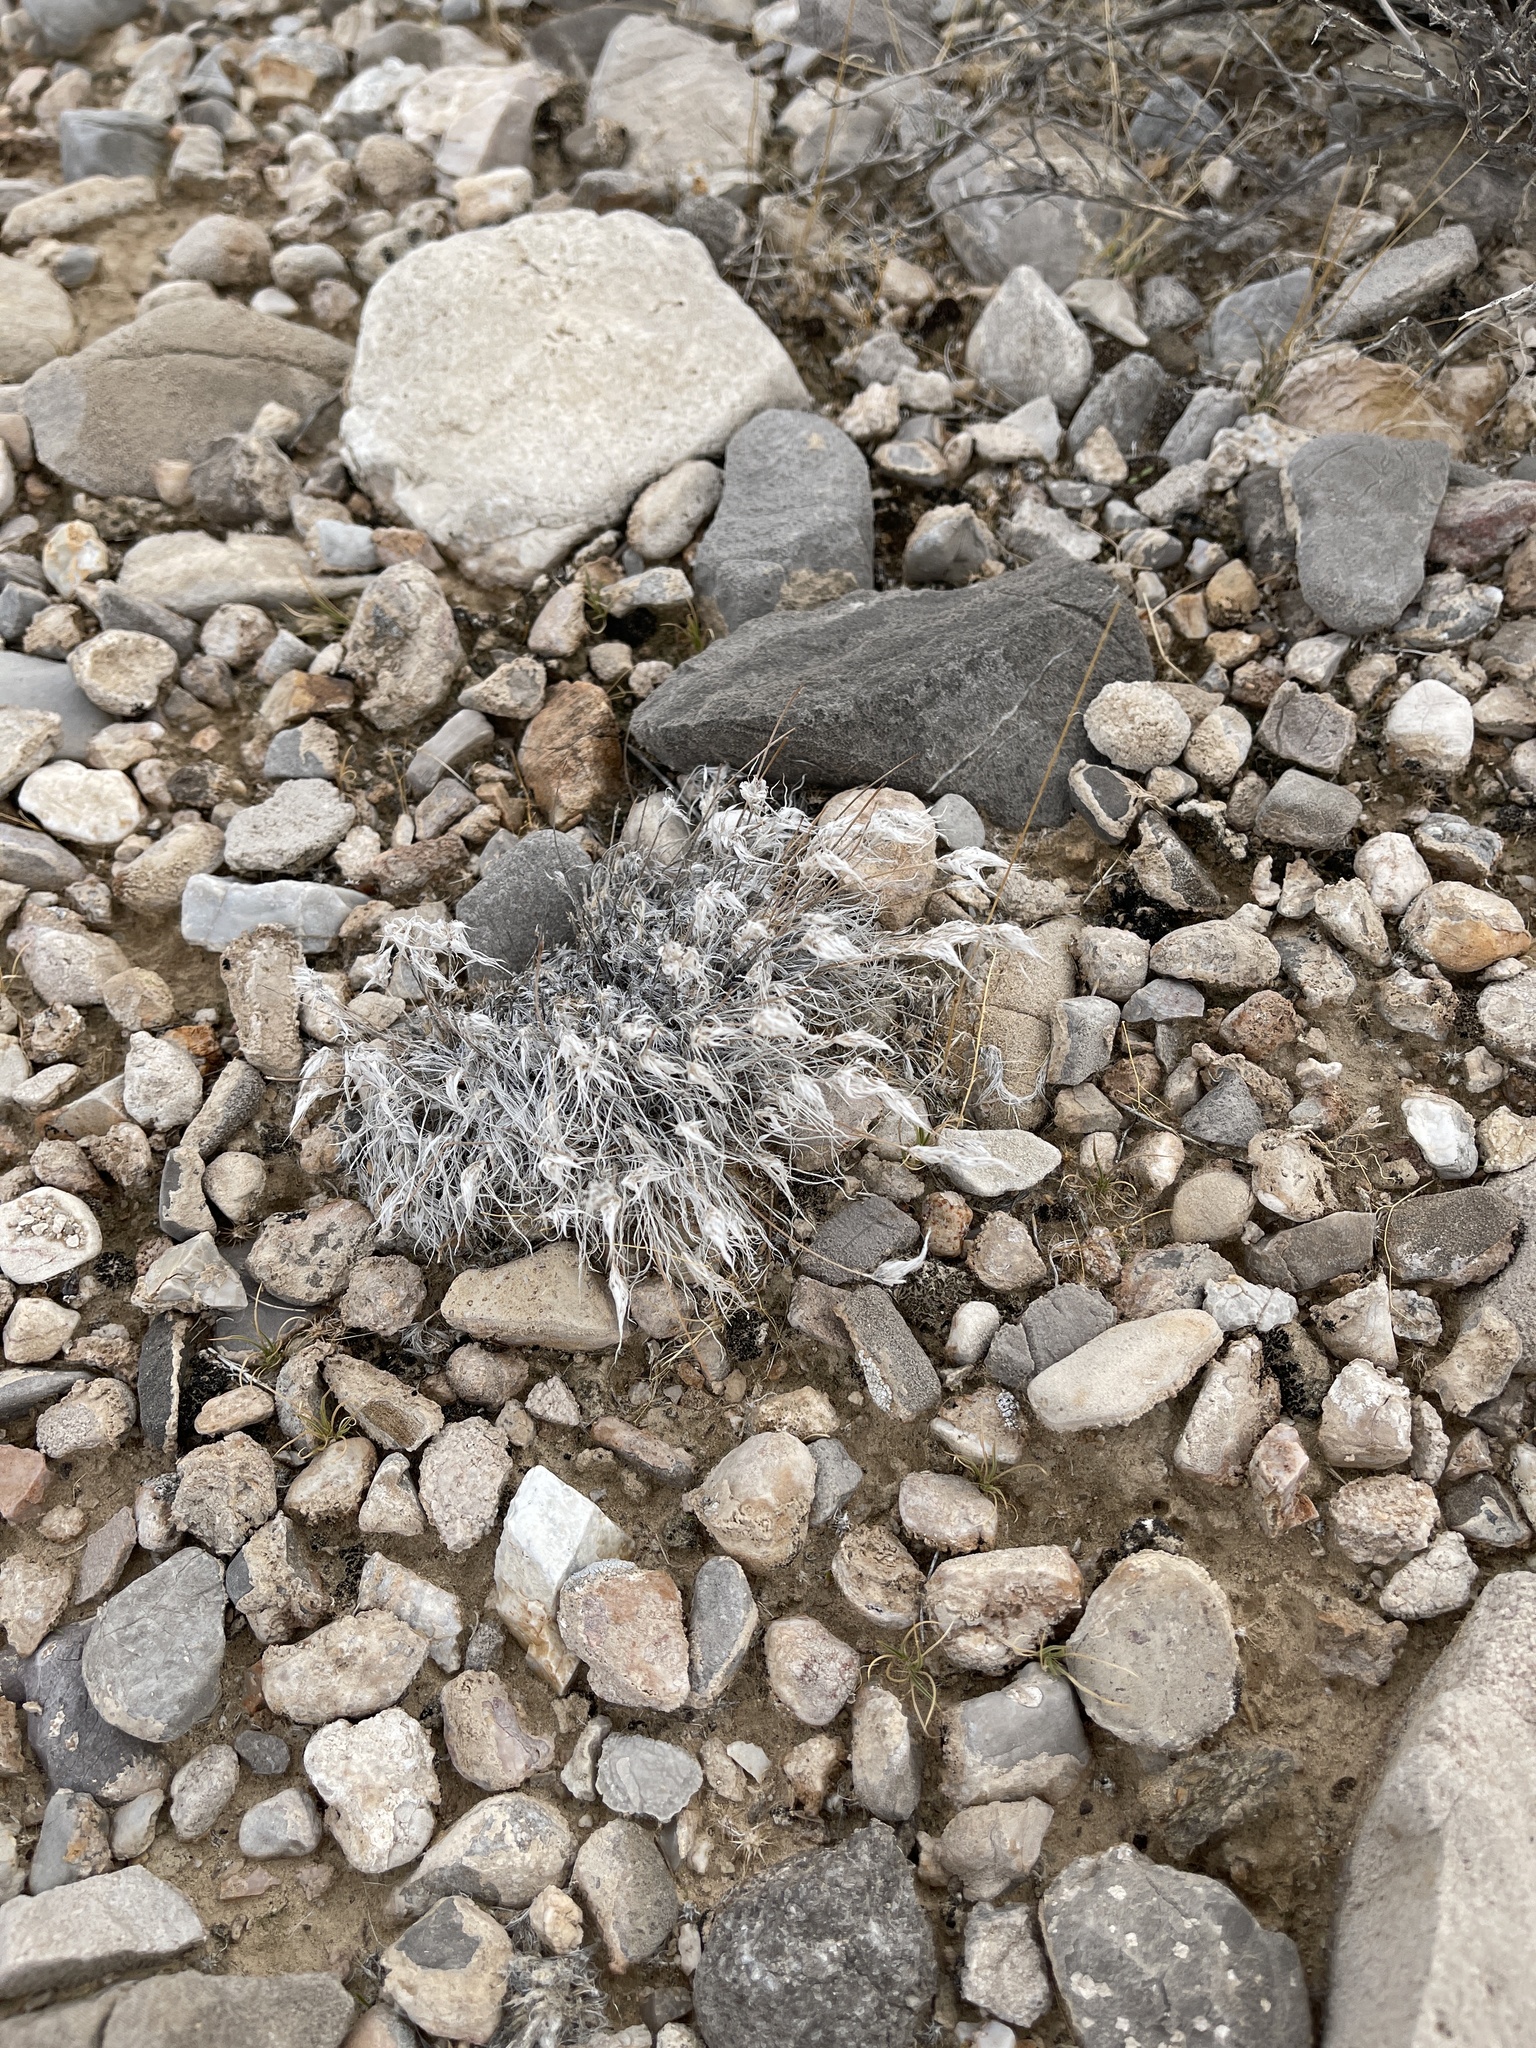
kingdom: Plantae
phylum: Tracheophyta
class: Liliopsida
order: Poales
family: Poaceae
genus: Dasyochloa
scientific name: Dasyochloa pulchella
